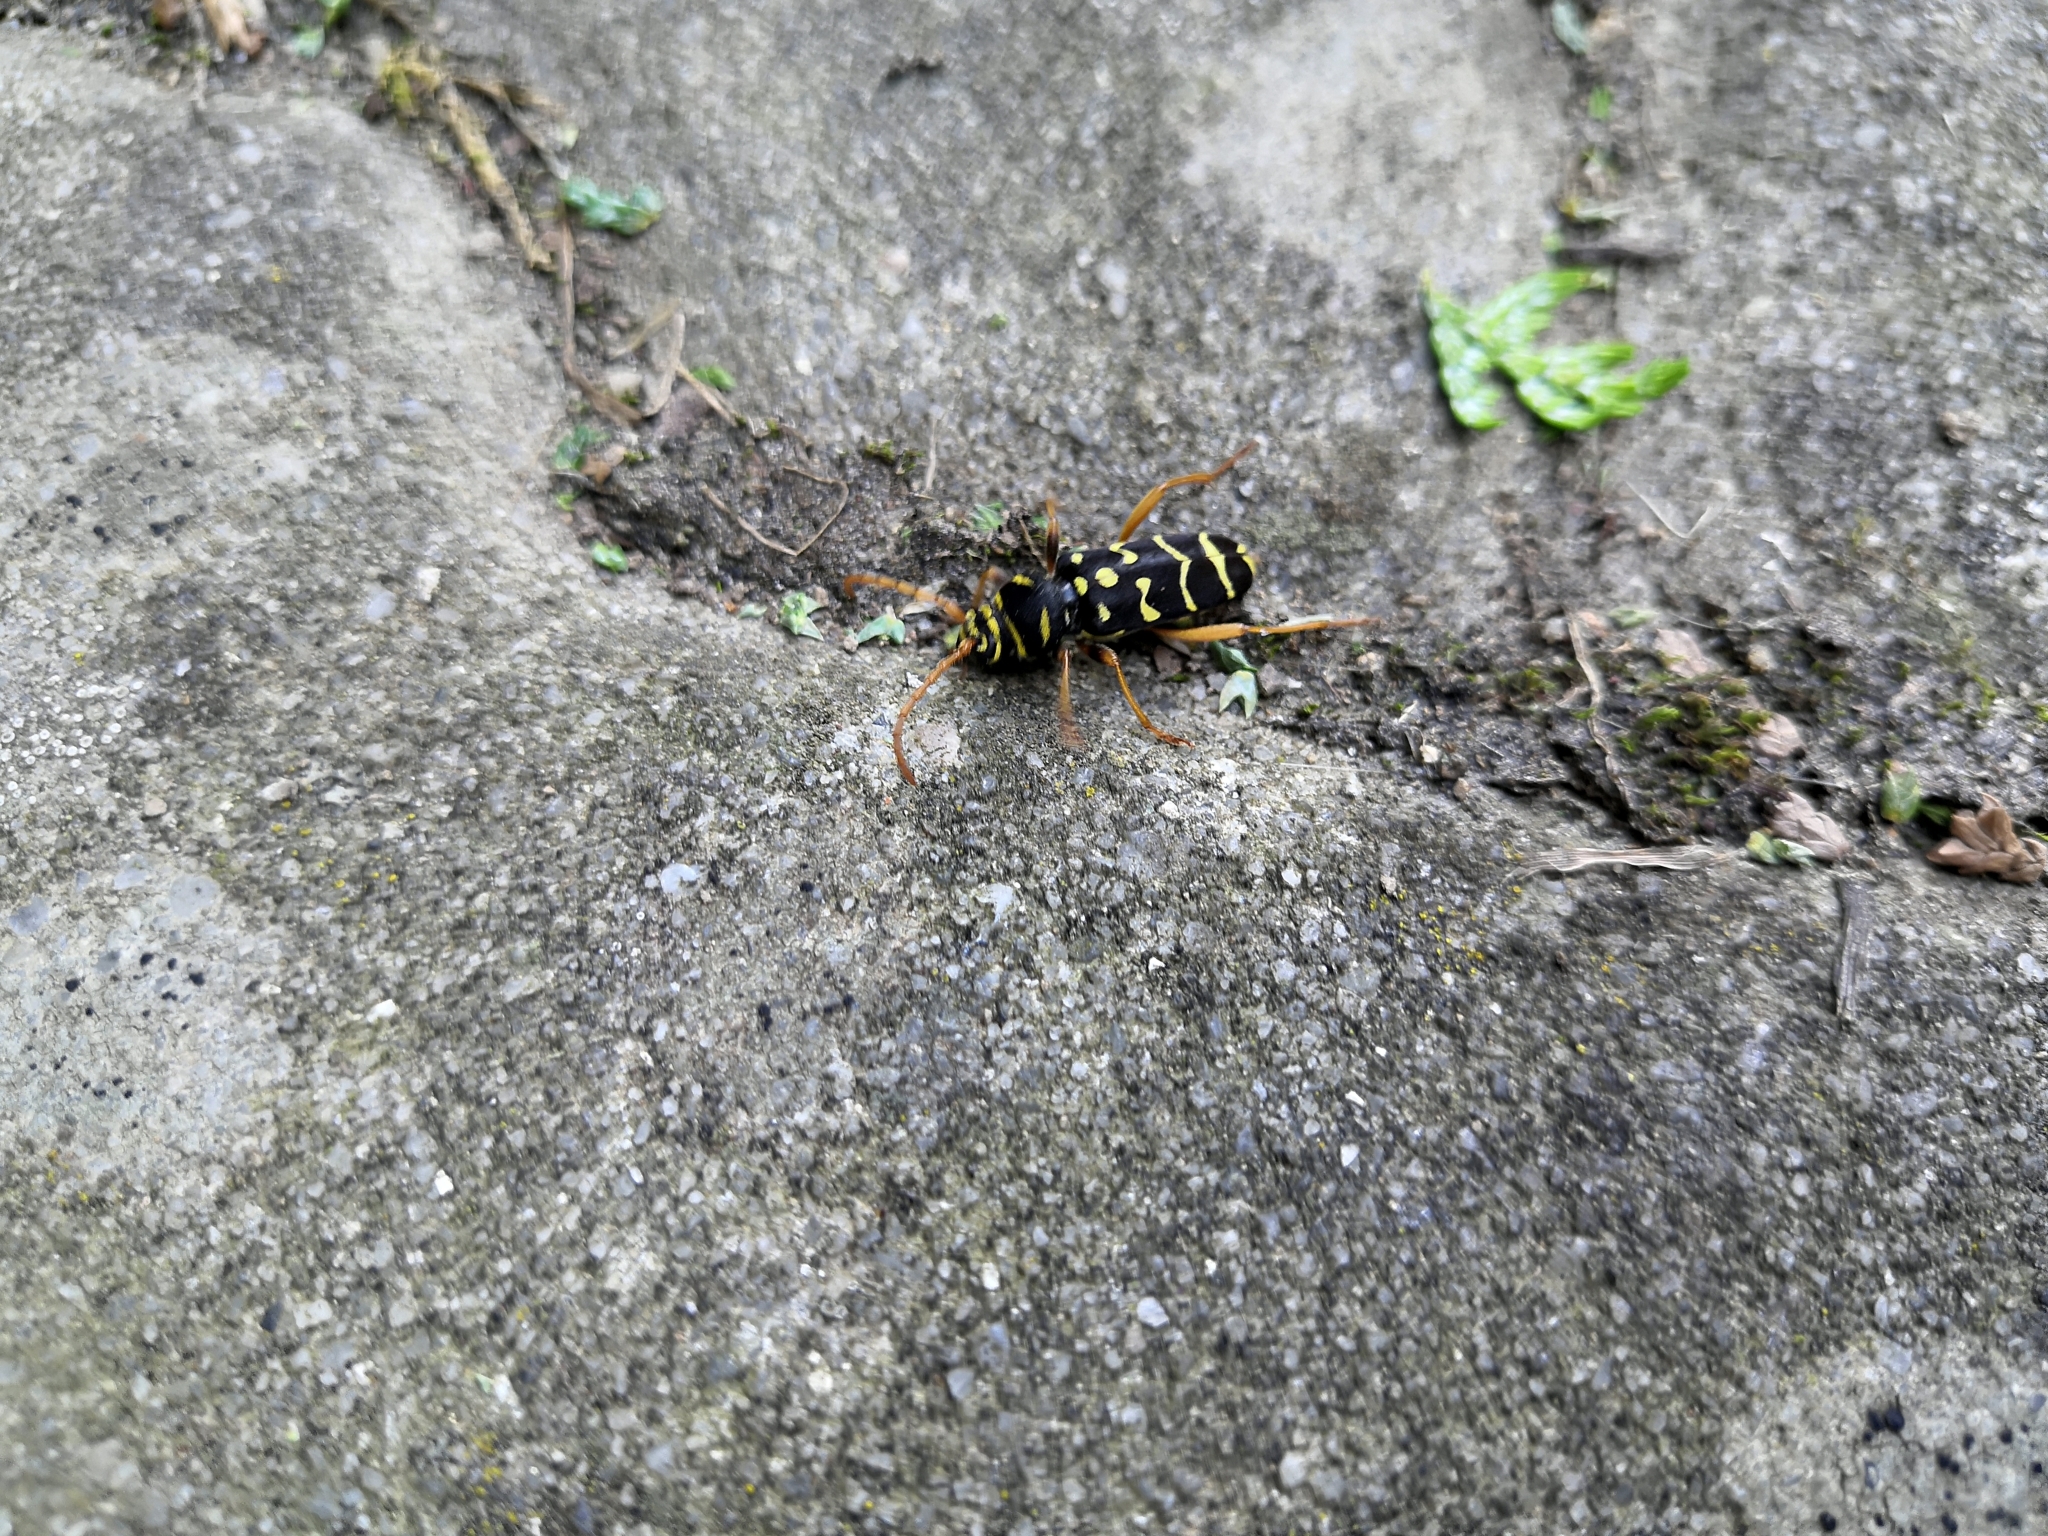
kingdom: Animalia
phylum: Arthropoda
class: Insecta
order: Coleoptera
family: Cerambycidae
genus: Plagionotus
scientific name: Plagionotus arcuatus
